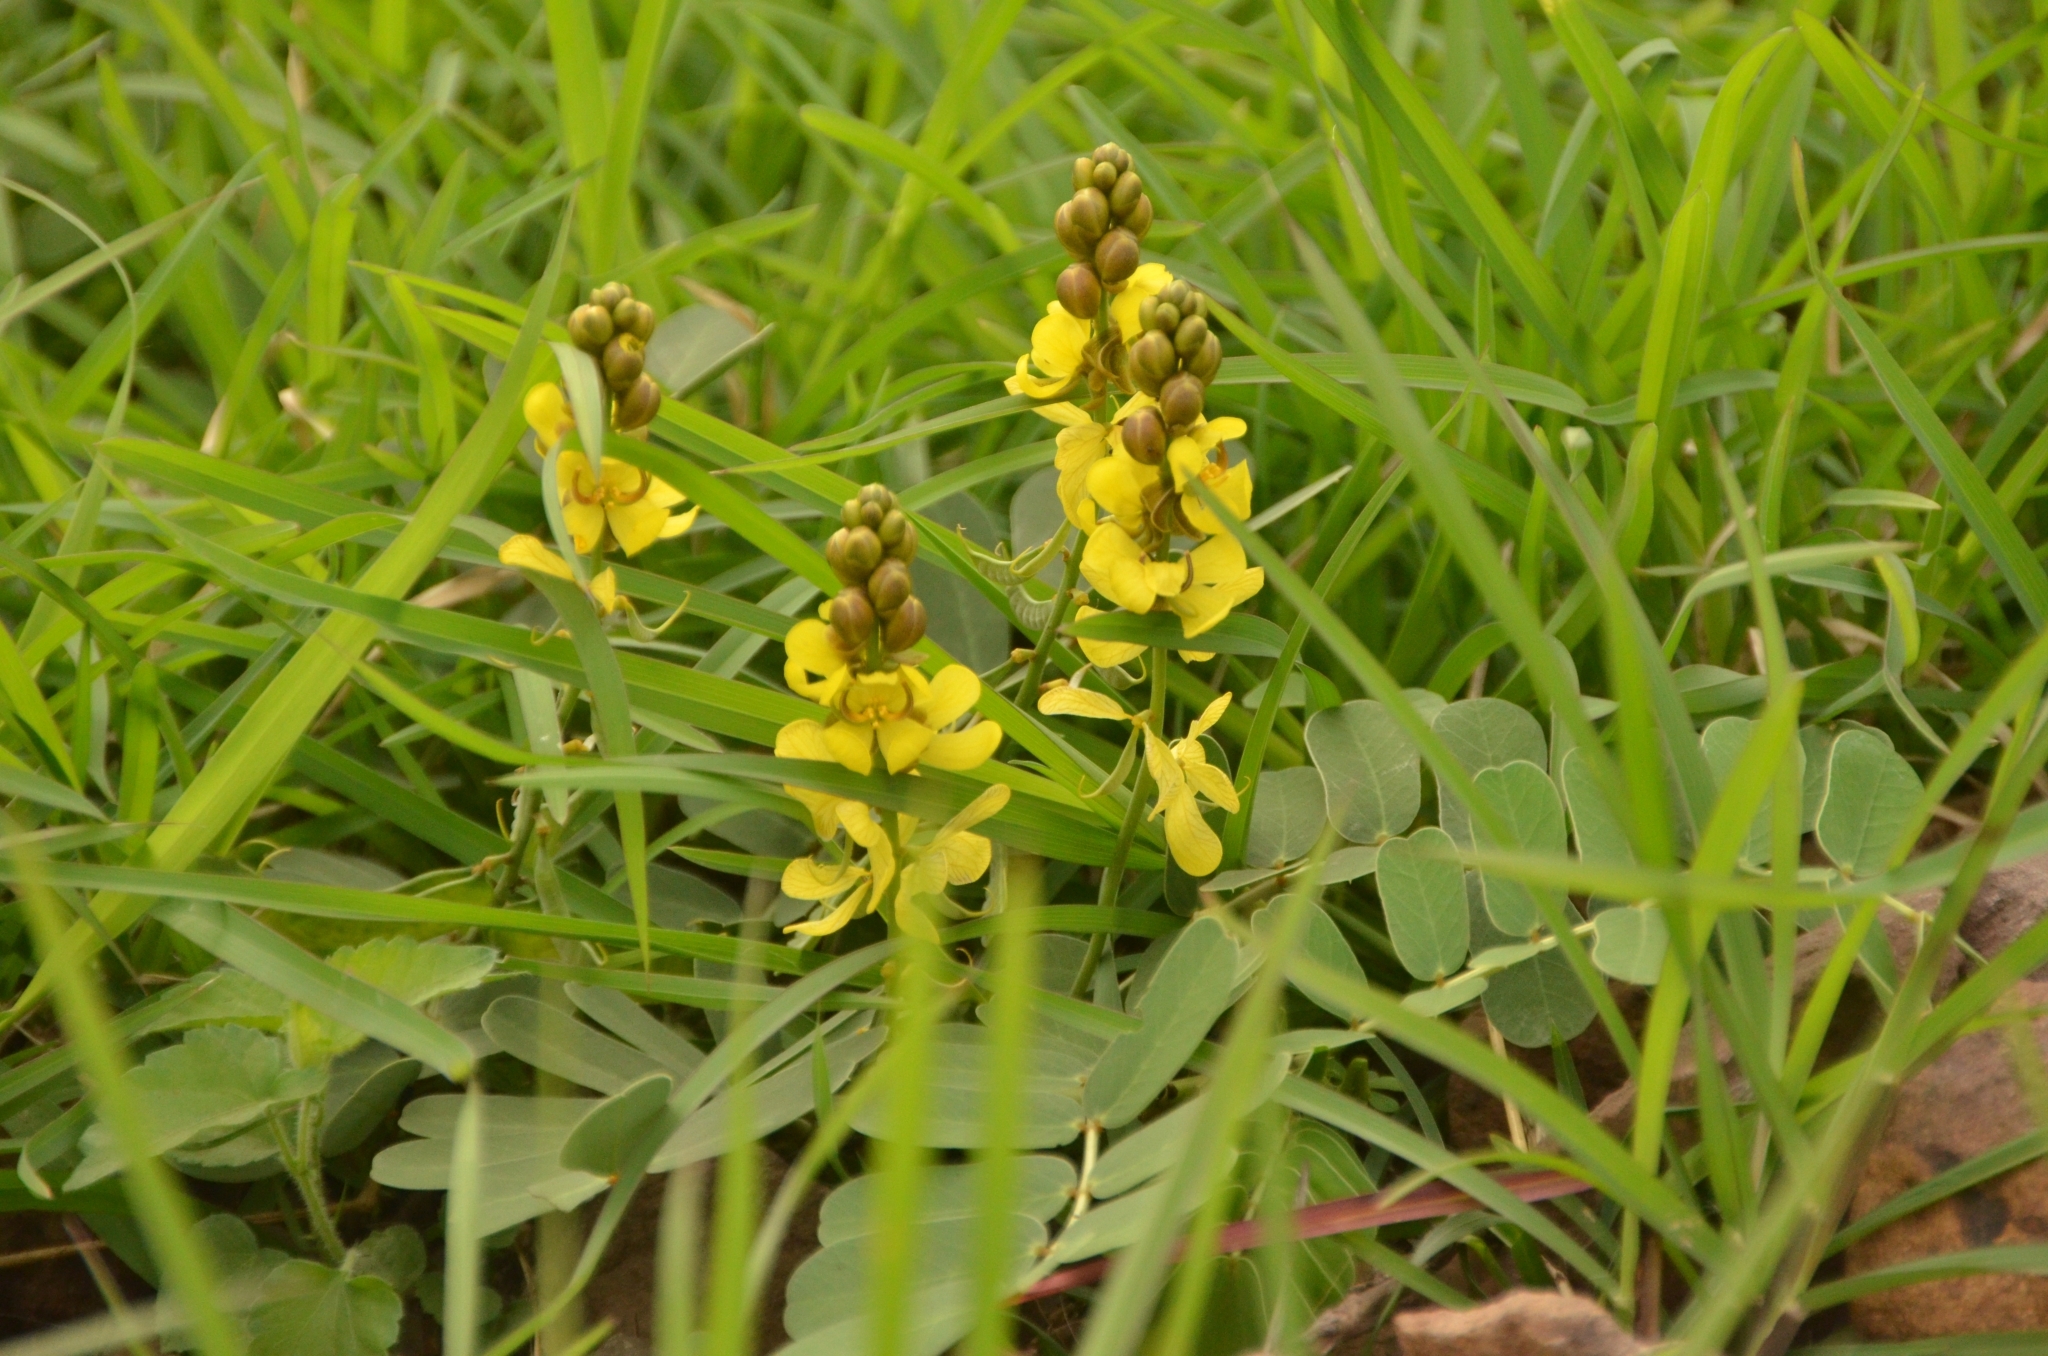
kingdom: Plantae
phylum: Tracheophyta
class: Magnoliopsida
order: Fabales
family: Fabaceae
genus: Senna
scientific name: Senna italica
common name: Port royal senna
